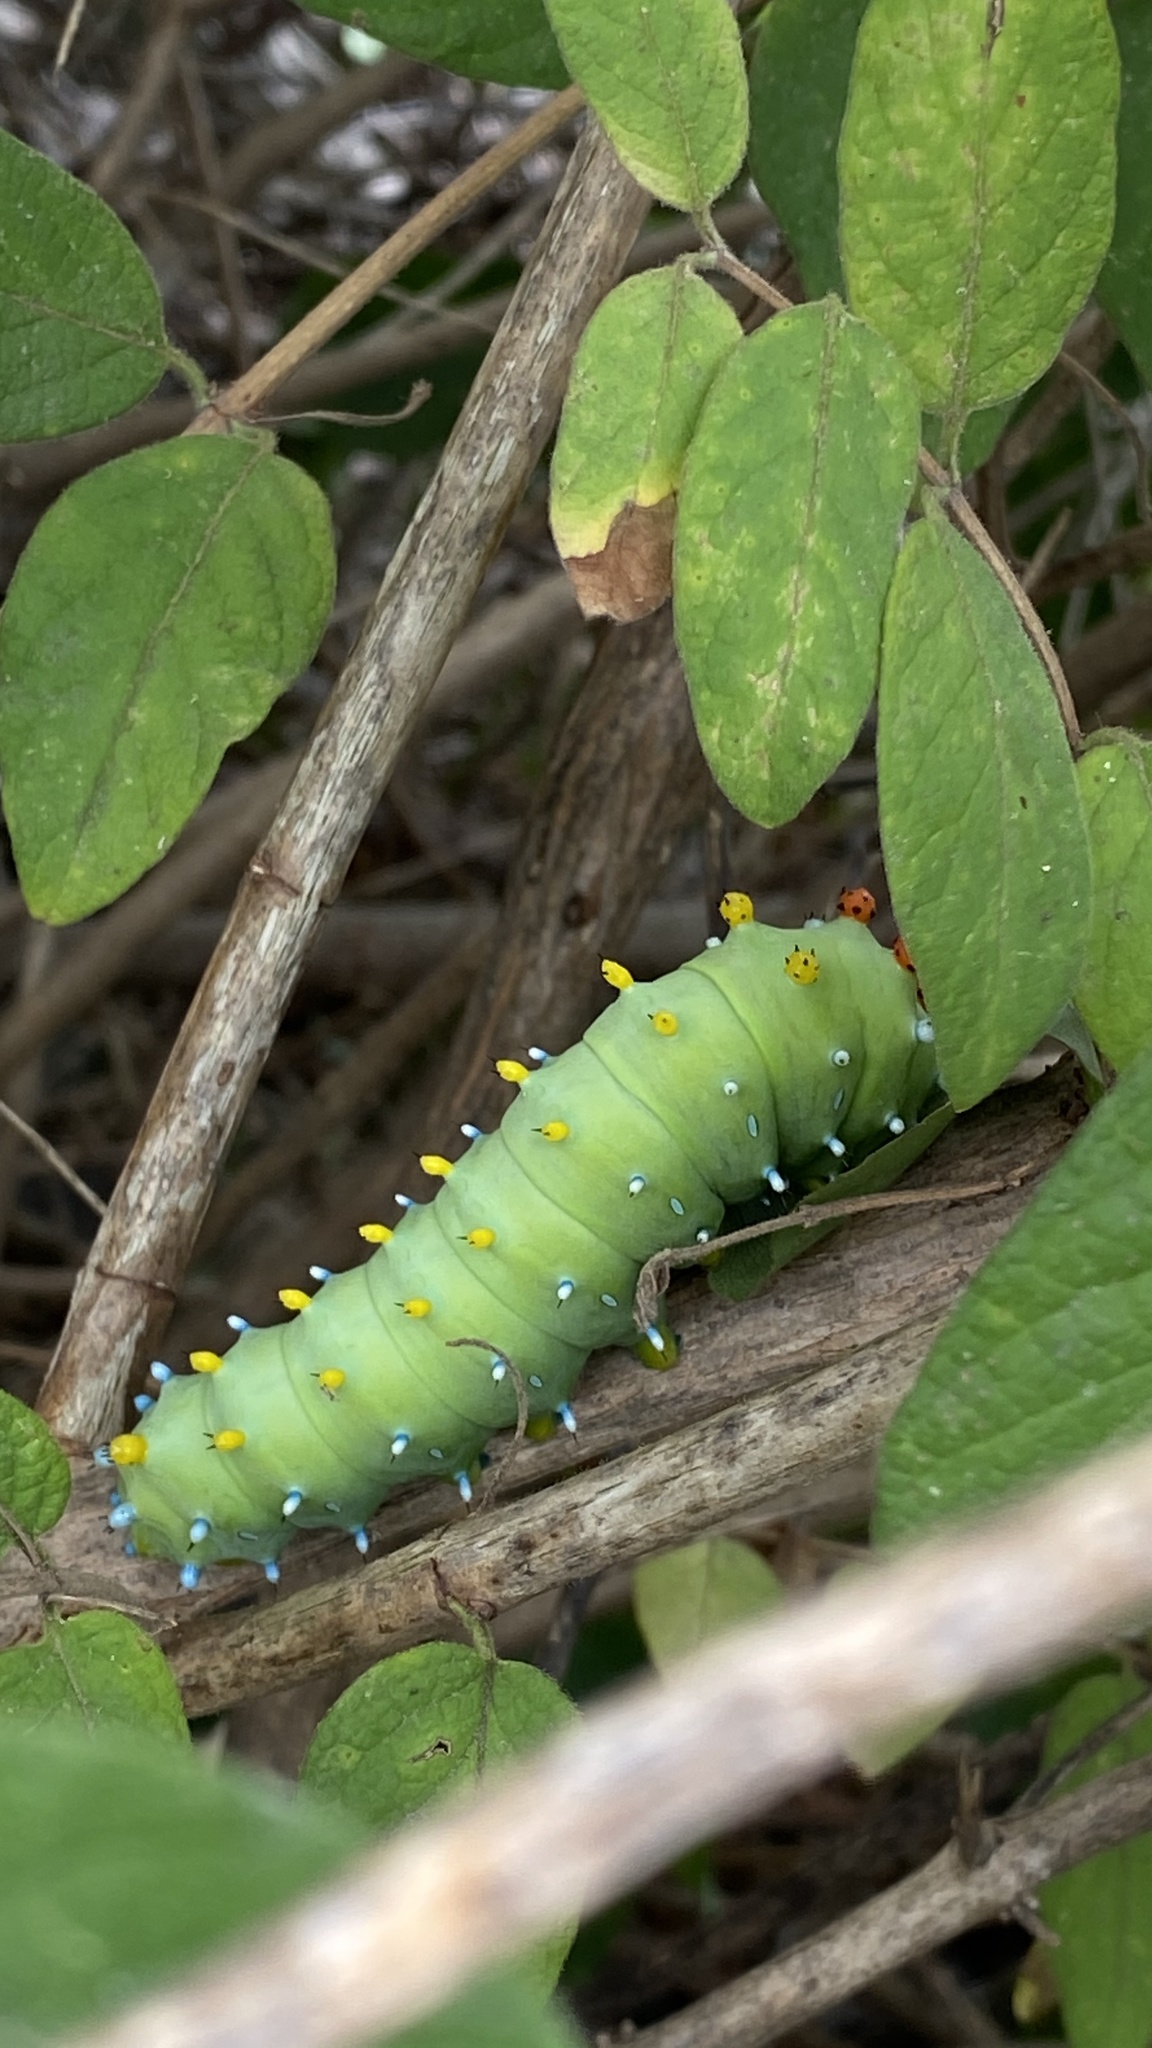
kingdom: Animalia
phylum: Arthropoda
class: Insecta
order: Lepidoptera
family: Saturniidae
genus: Hyalophora
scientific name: Hyalophora cecropia
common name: Cecropia silkmoth
